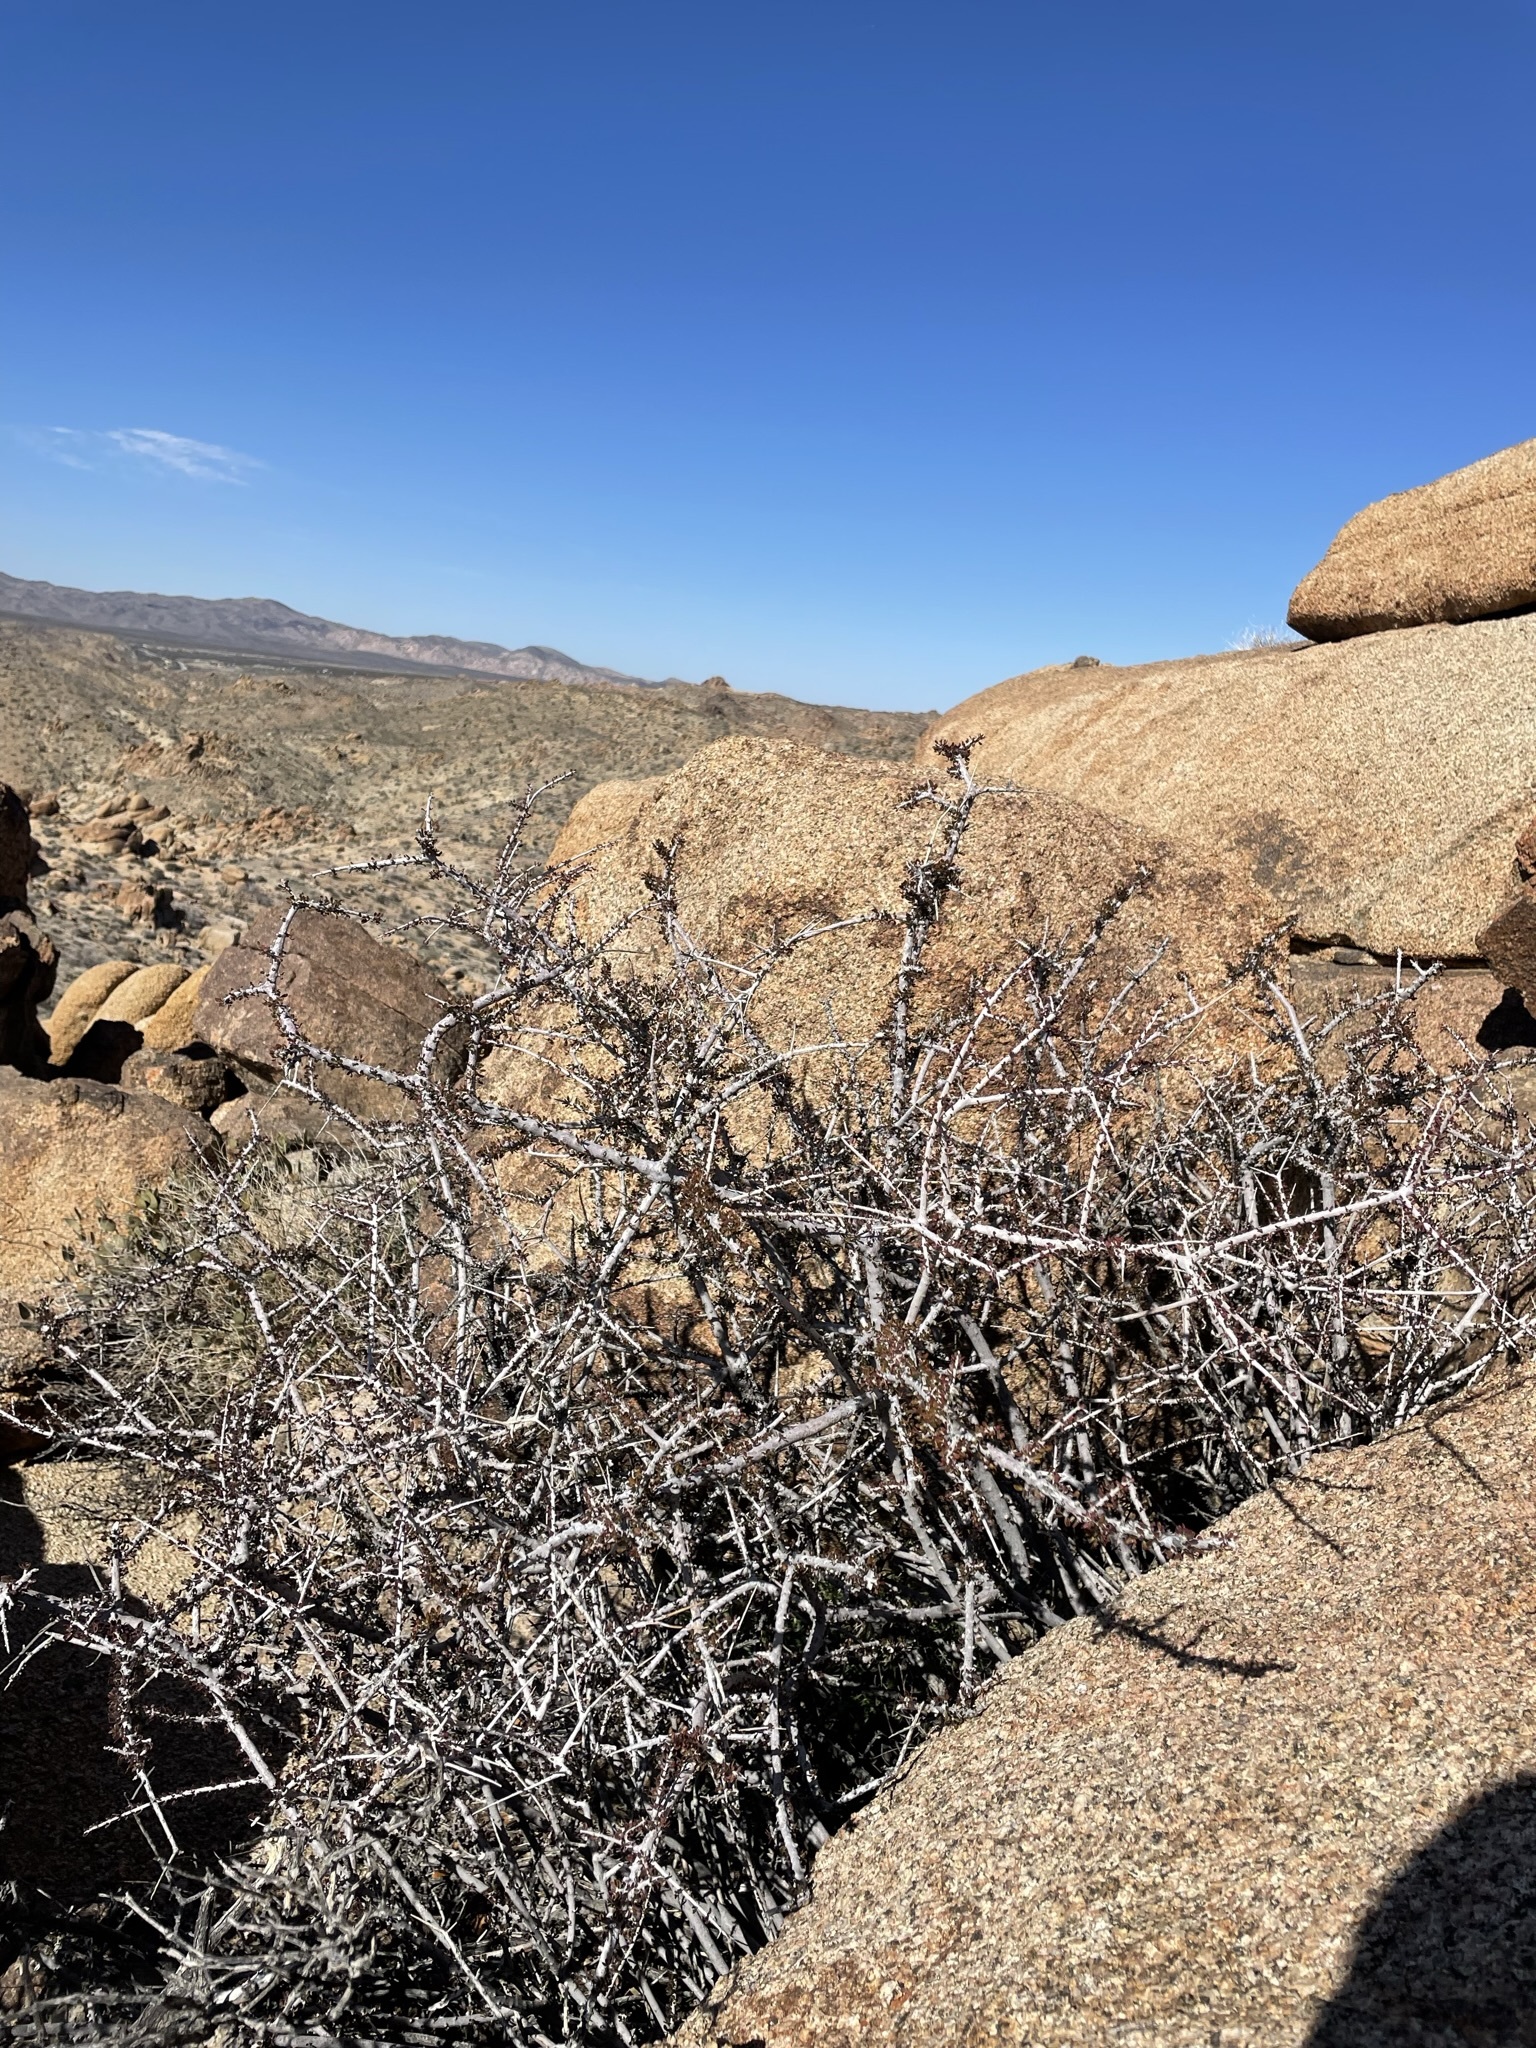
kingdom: Plantae
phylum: Tracheophyta
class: Magnoliopsida
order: Malpighiales
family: Picrodendraceae
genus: Tetracoccus
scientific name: Tetracoccus hallii
